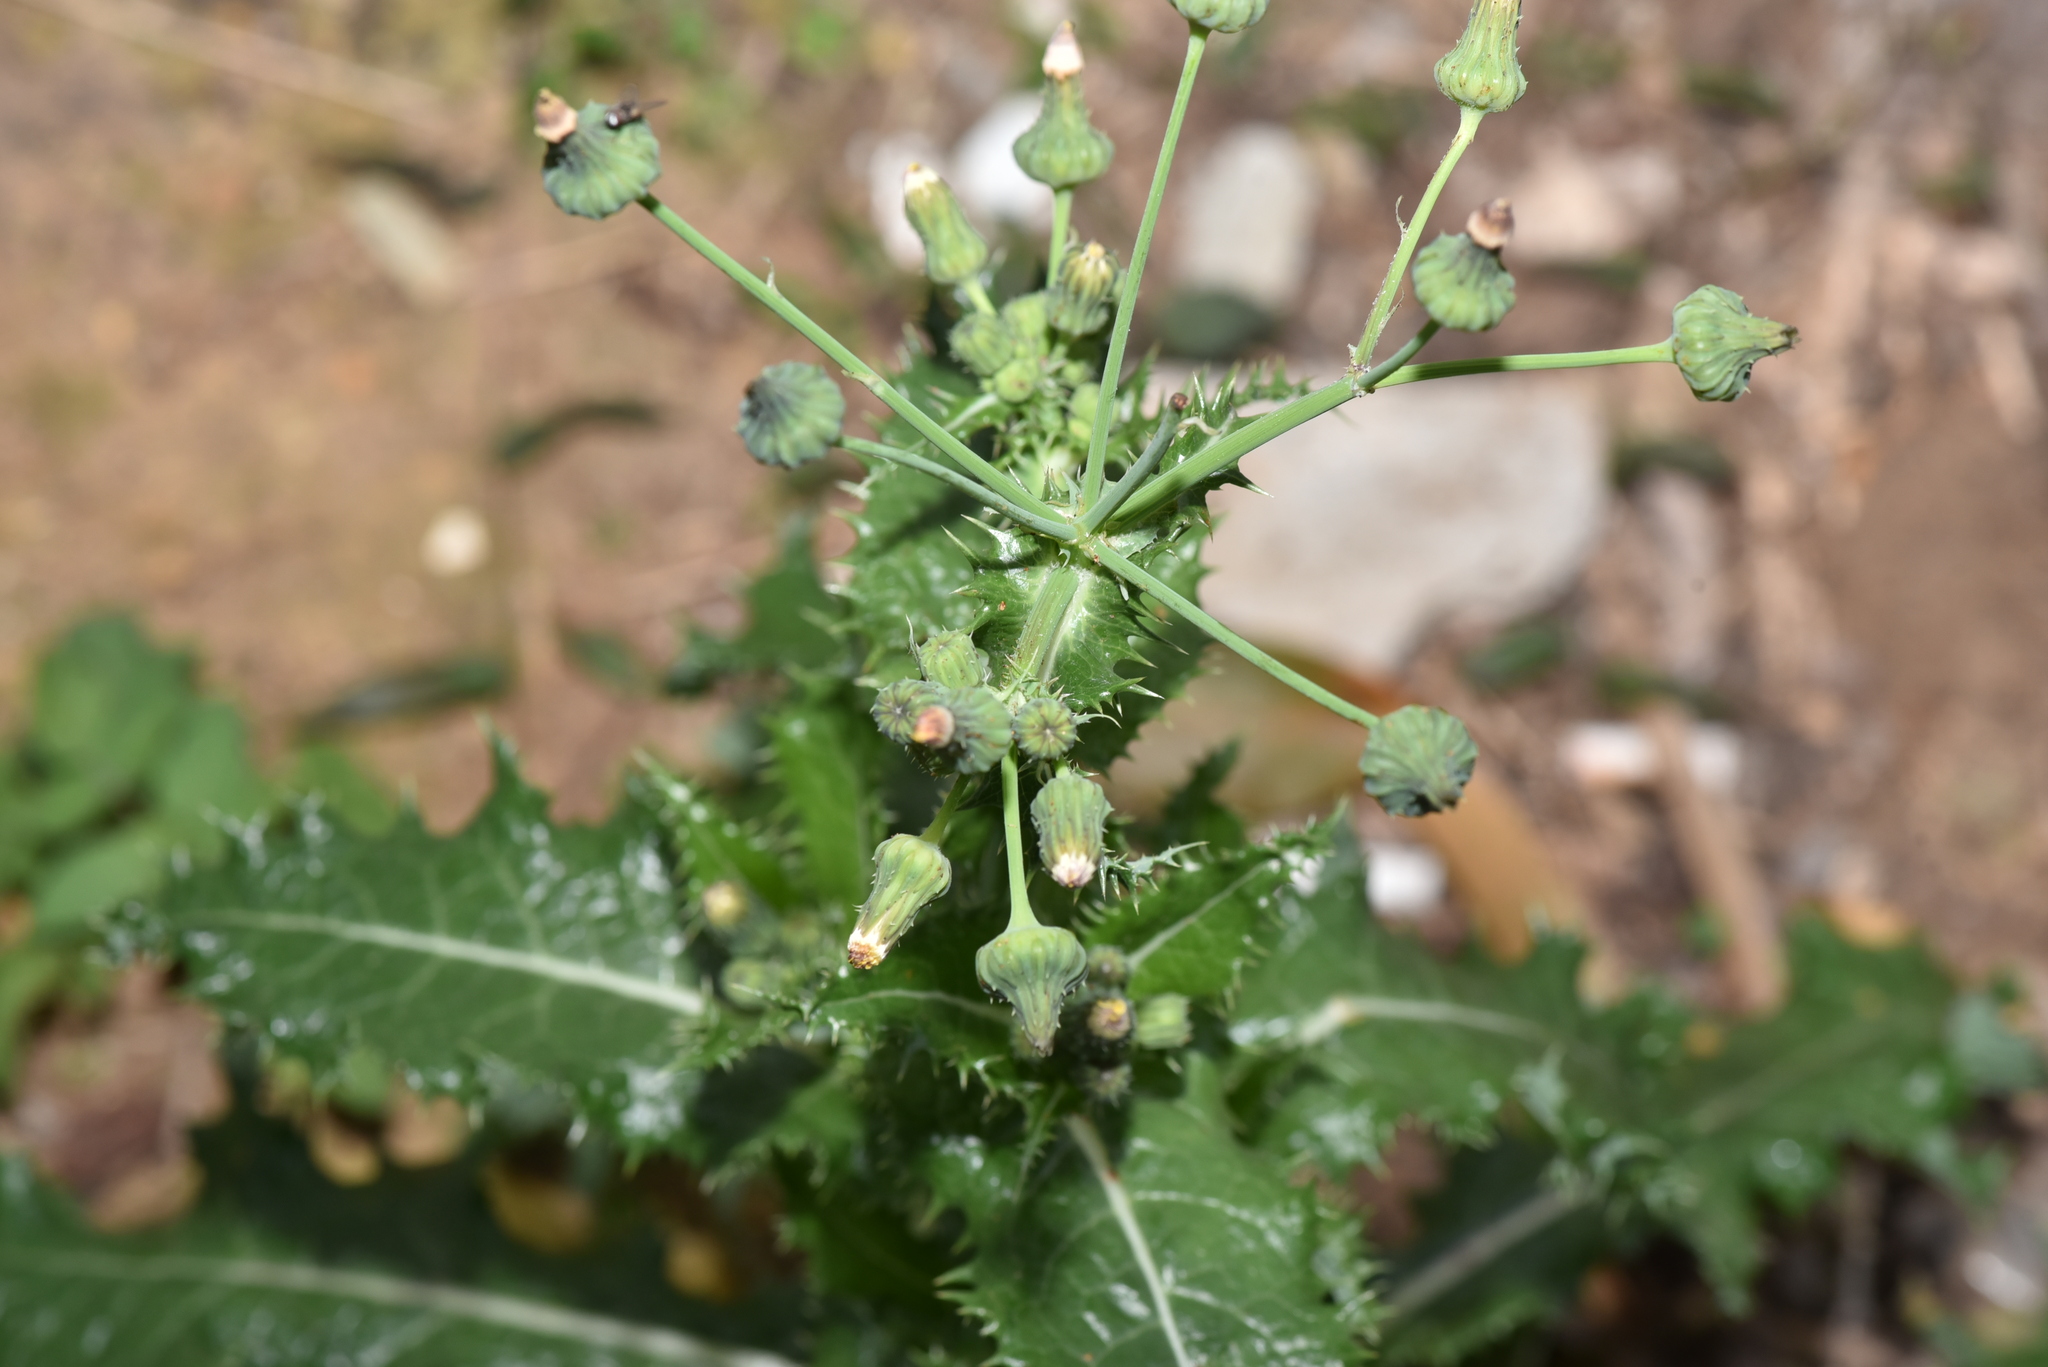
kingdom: Plantae
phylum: Tracheophyta
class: Magnoliopsida
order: Asterales
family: Asteraceae
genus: Sonchus
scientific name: Sonchus asper
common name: Prickly sow-thistle
